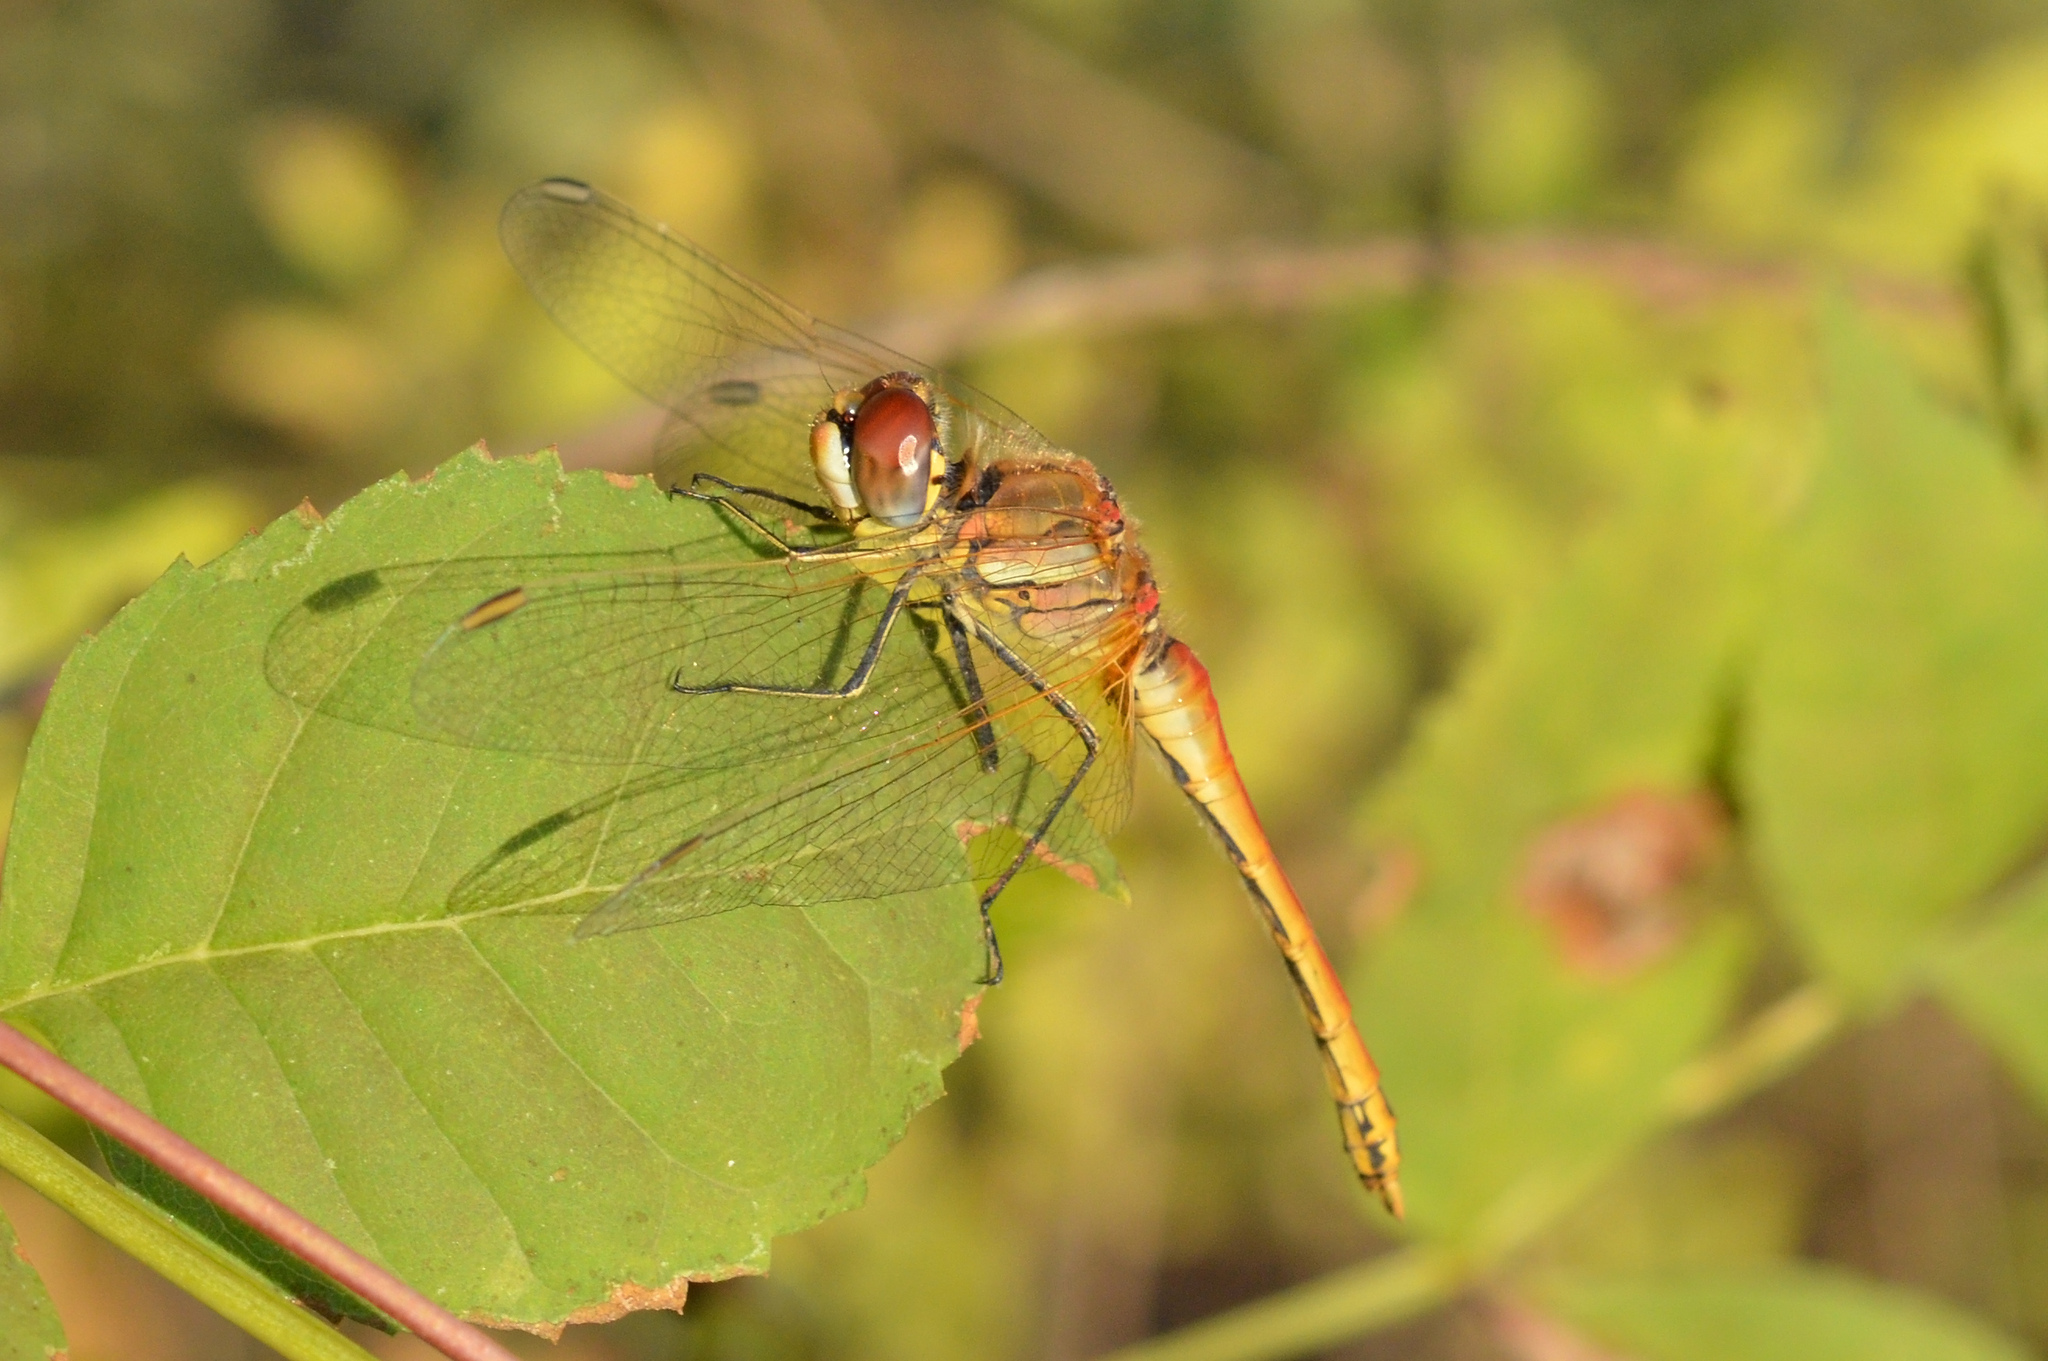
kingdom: Animalia
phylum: Arthropoda
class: Insecta
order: Odonata
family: Libellulidae
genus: Sympetrum
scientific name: Sympetrum fonscolombii
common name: Red-veined darter
